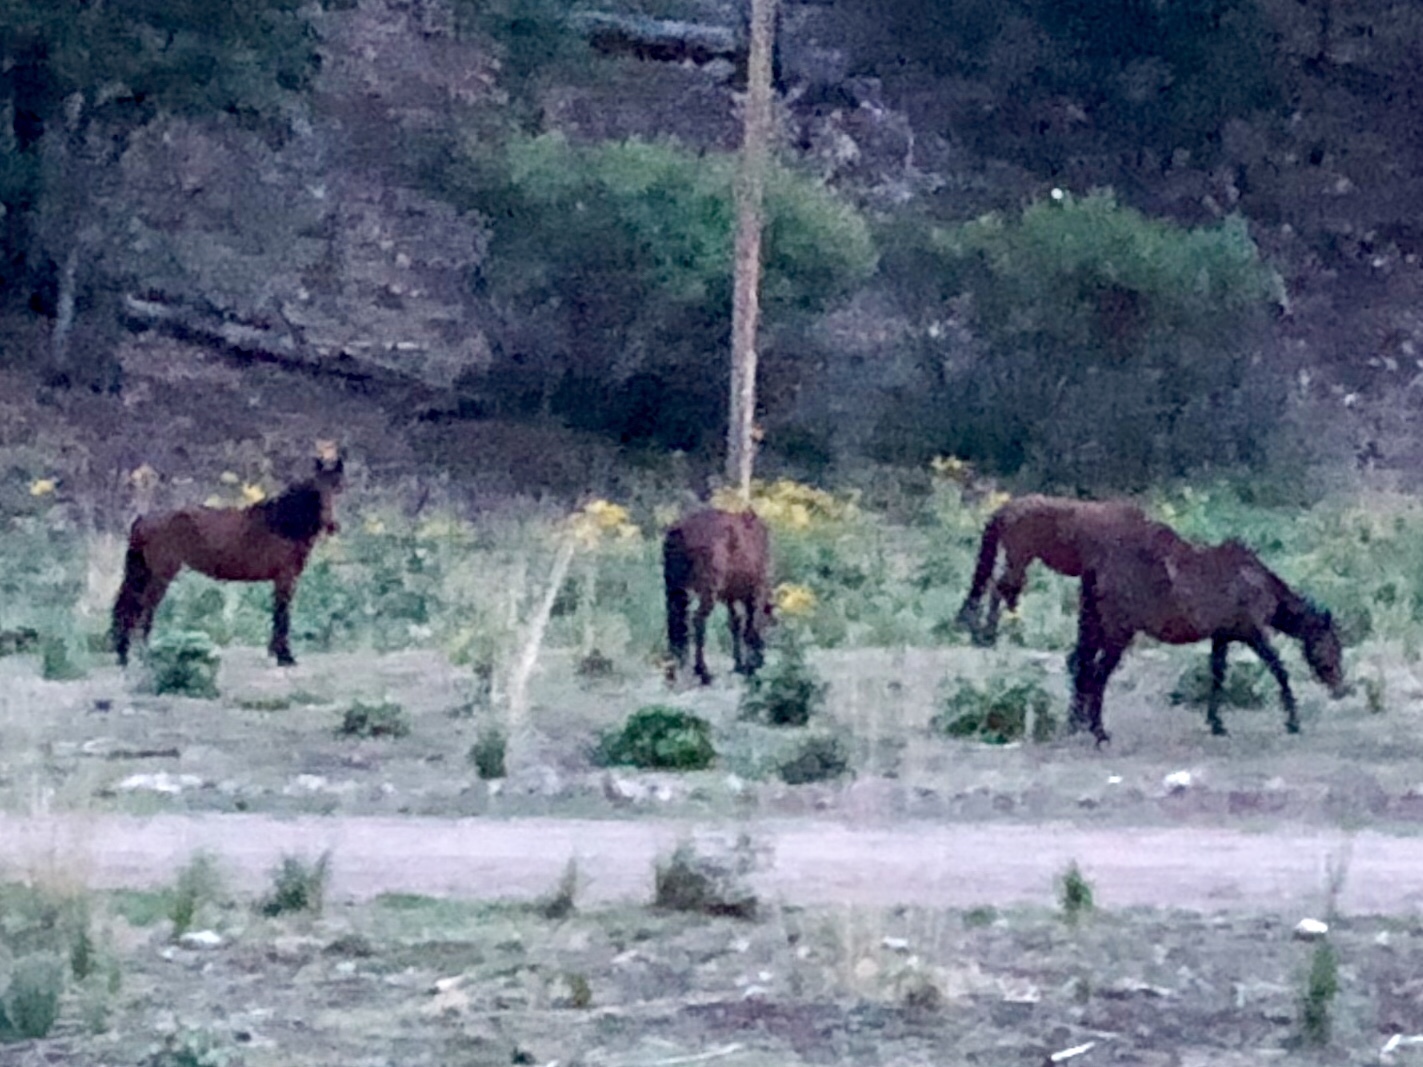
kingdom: Animalia
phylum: Chordata
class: Mammalia
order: Perissodactyla
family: Equidae
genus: Equus
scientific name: Equus caballus
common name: Horse
